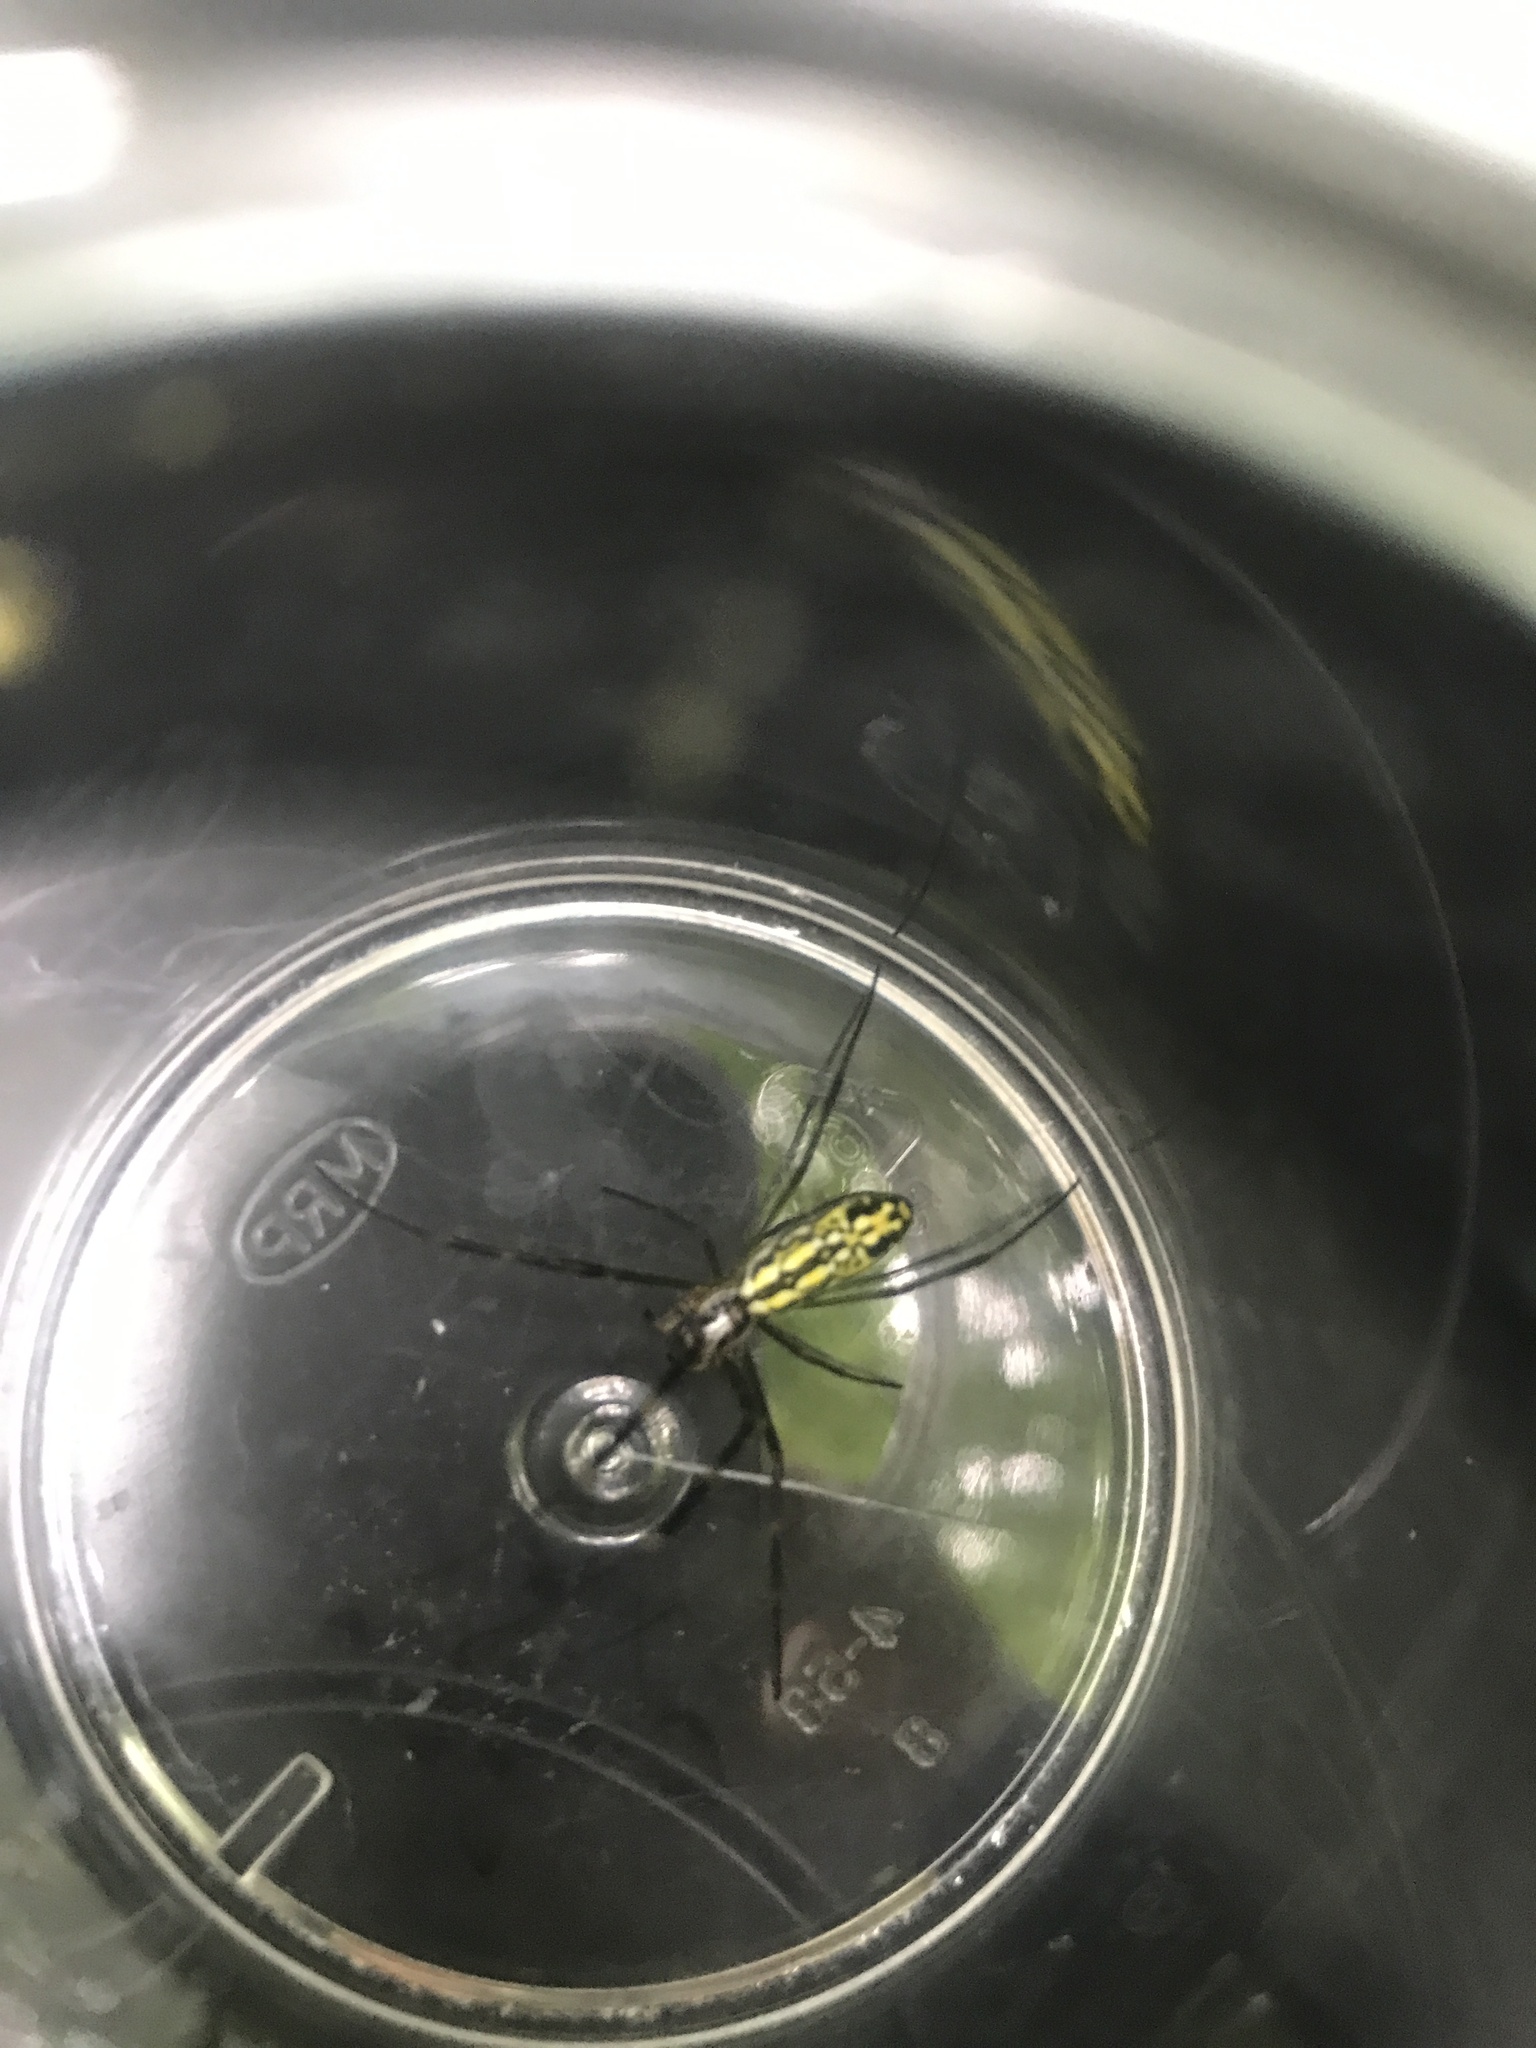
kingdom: Animalia
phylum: Arthropoda
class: Arachnida
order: Araneae
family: Araneidae
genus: Trichonephila
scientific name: Trichonephila clavata
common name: Jorō spider
